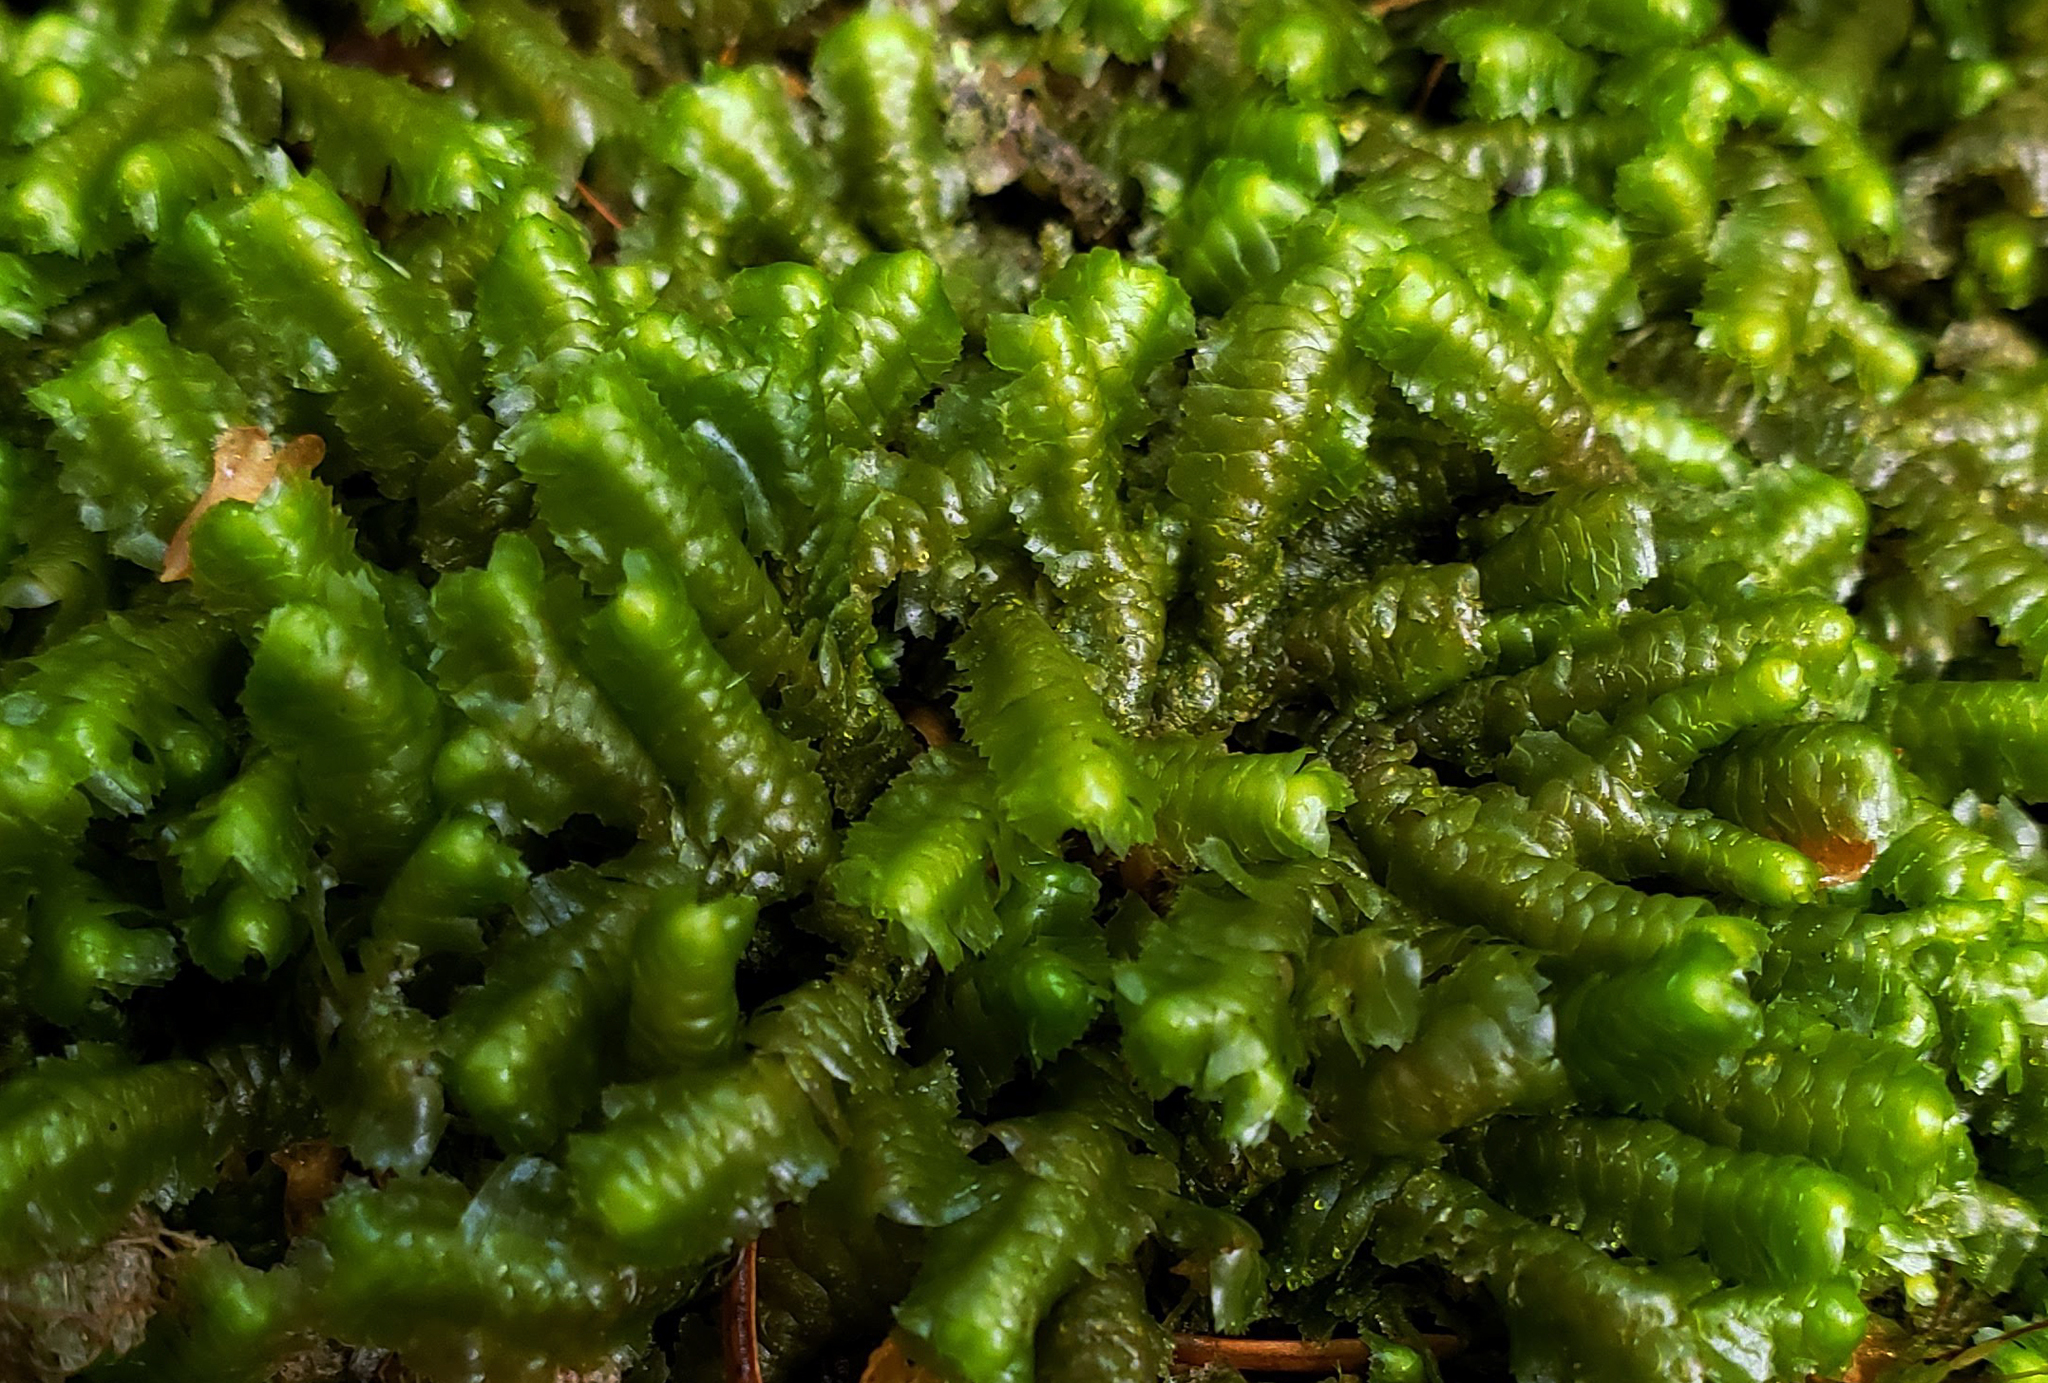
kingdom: Plantae
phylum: Marchantiophyta
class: Jungermanniopsida
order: Jungermanniales
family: Lepidoziaceae
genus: Bazzania
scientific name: Bazzania trilobata
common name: Three-lobed whipwort
